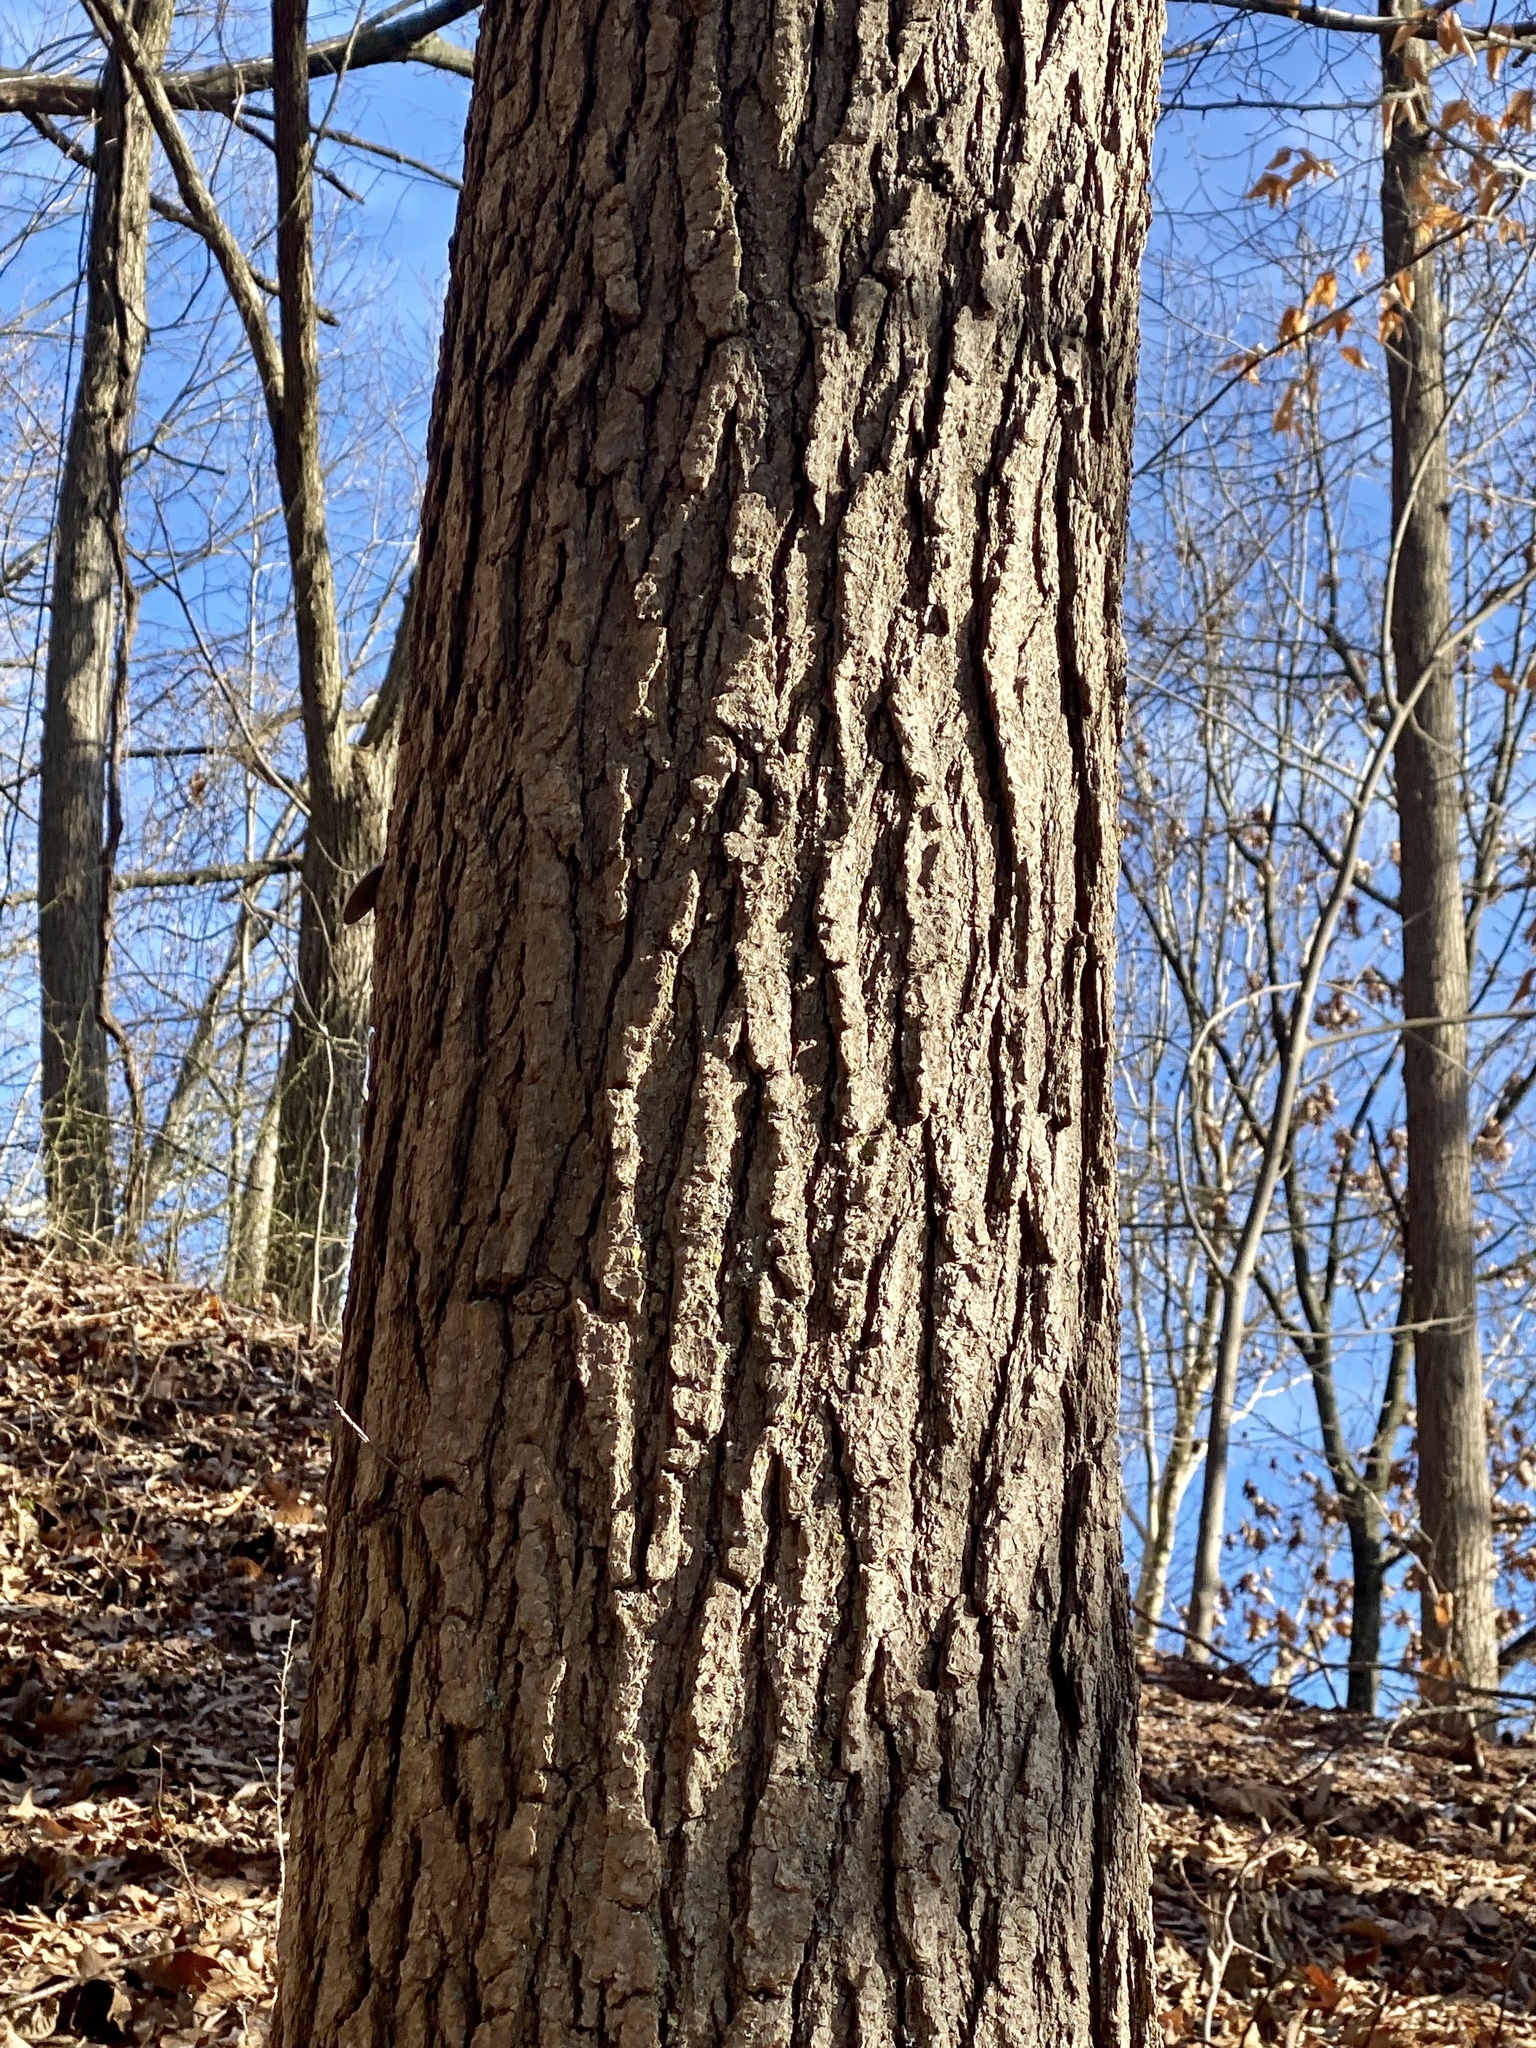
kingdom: Plantae
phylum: Tracheophyta
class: Magnoliopsida
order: Saxifragales
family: Altingiaceae
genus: Liquidambar
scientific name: Liquidambar styraciflua
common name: Sweet gum
